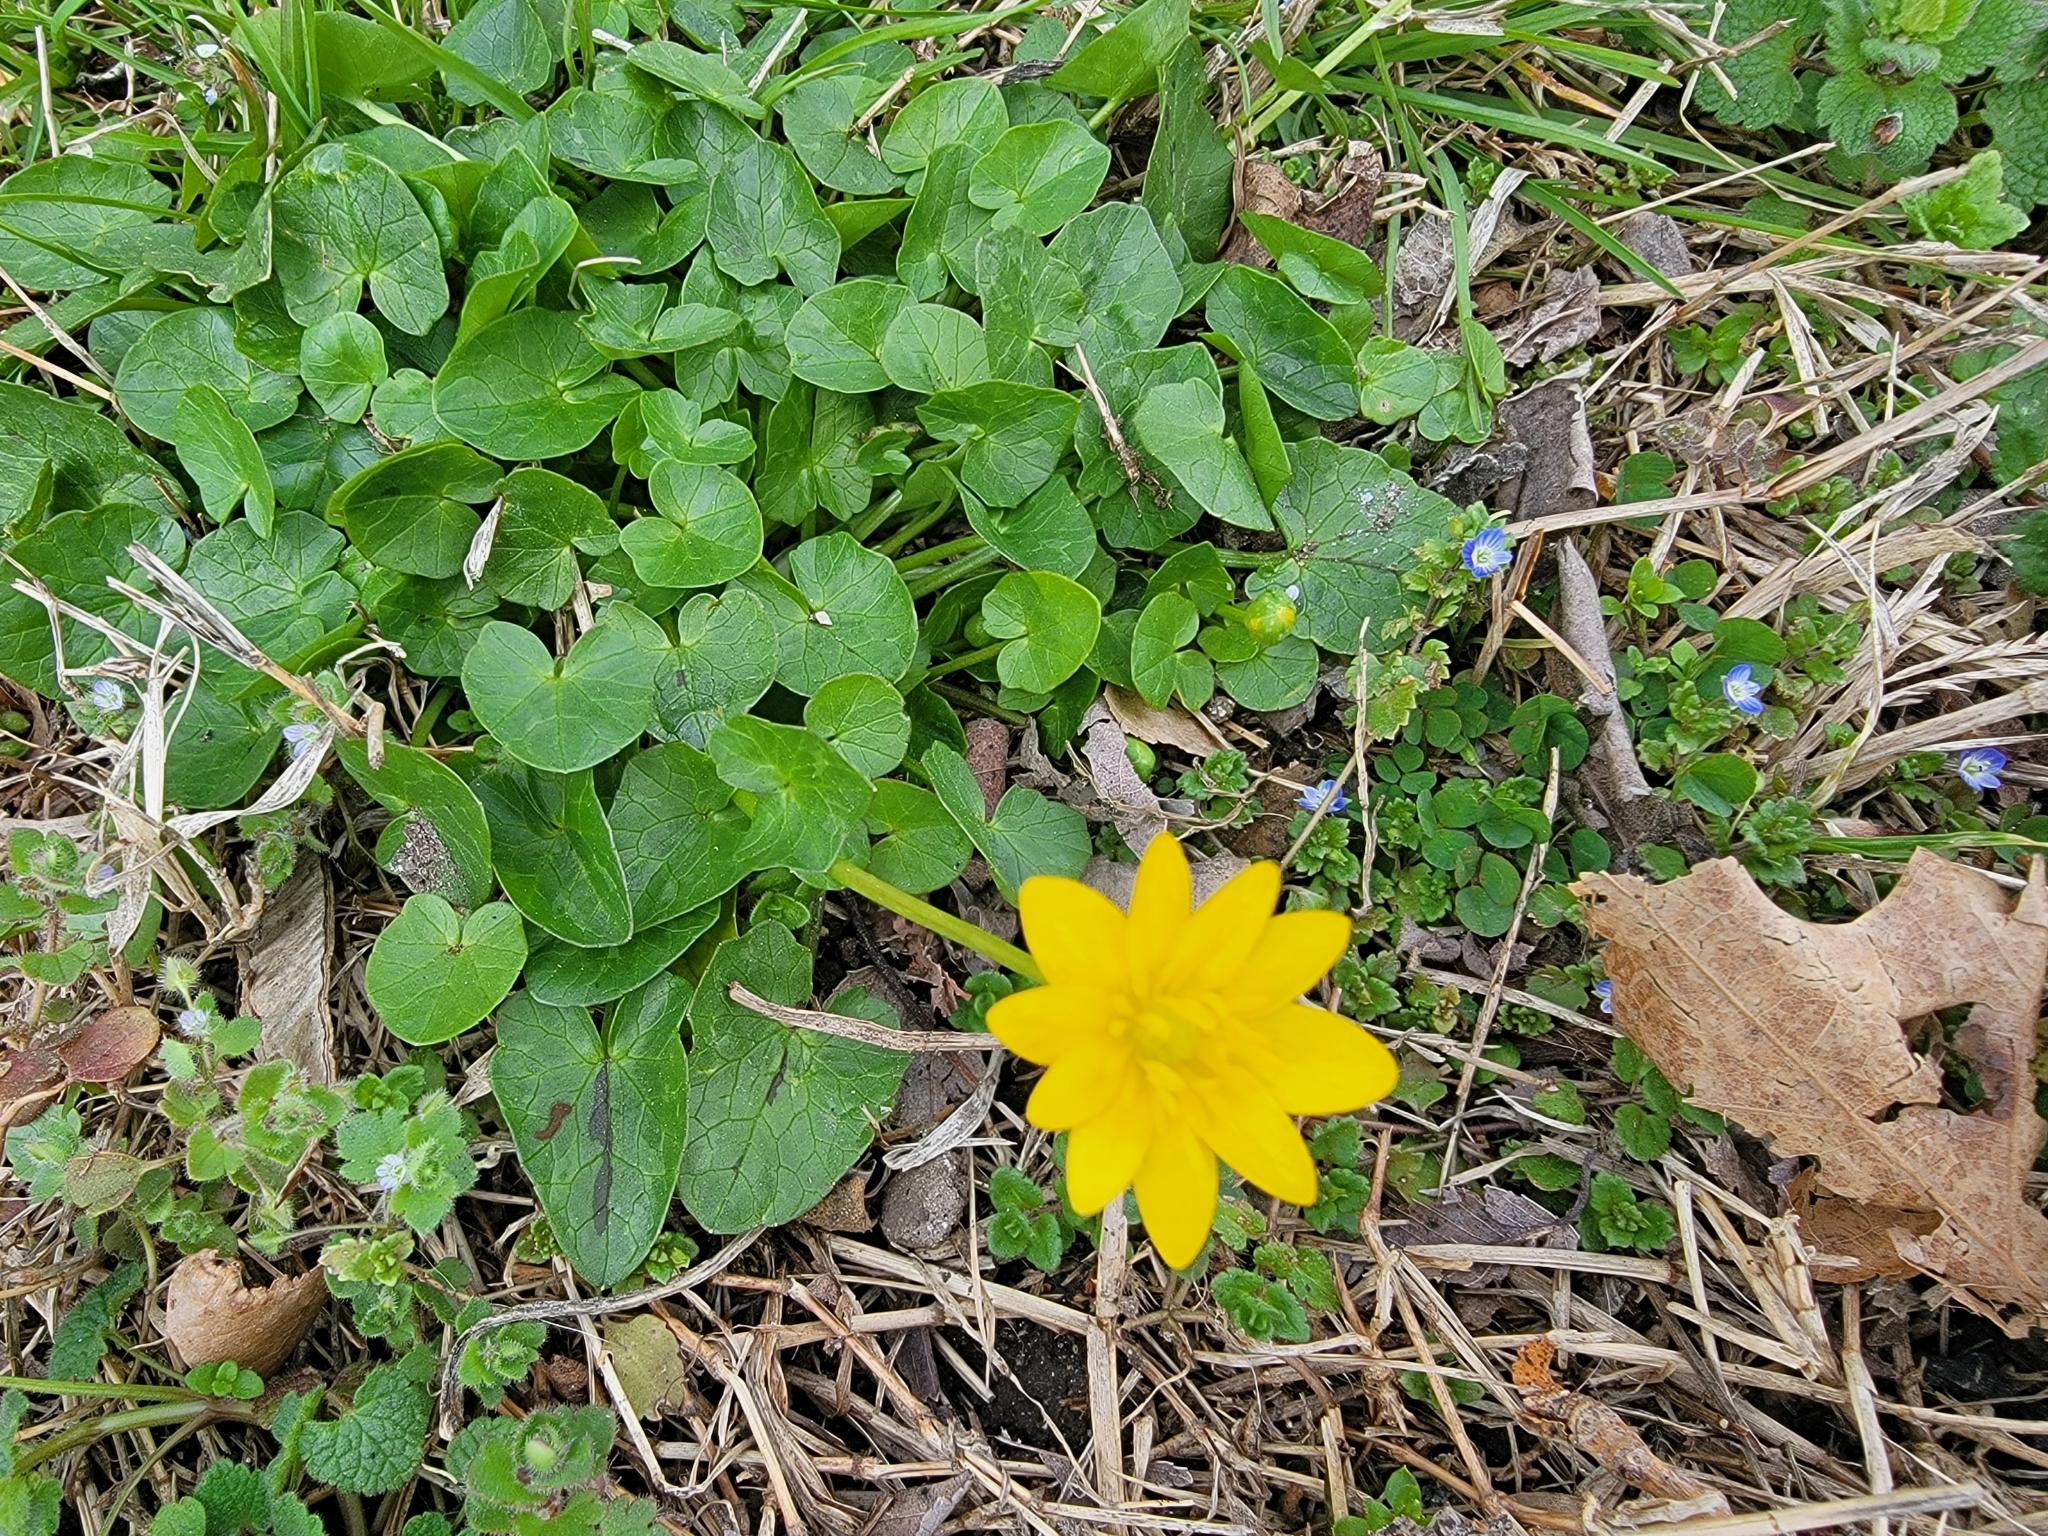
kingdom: Plantae
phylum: Tracheophyta
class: Magnoliopsida
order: Ranunculales
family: Ranunculaceae
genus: Ficaria
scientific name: Ficaria verna
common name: Lesser celandine
